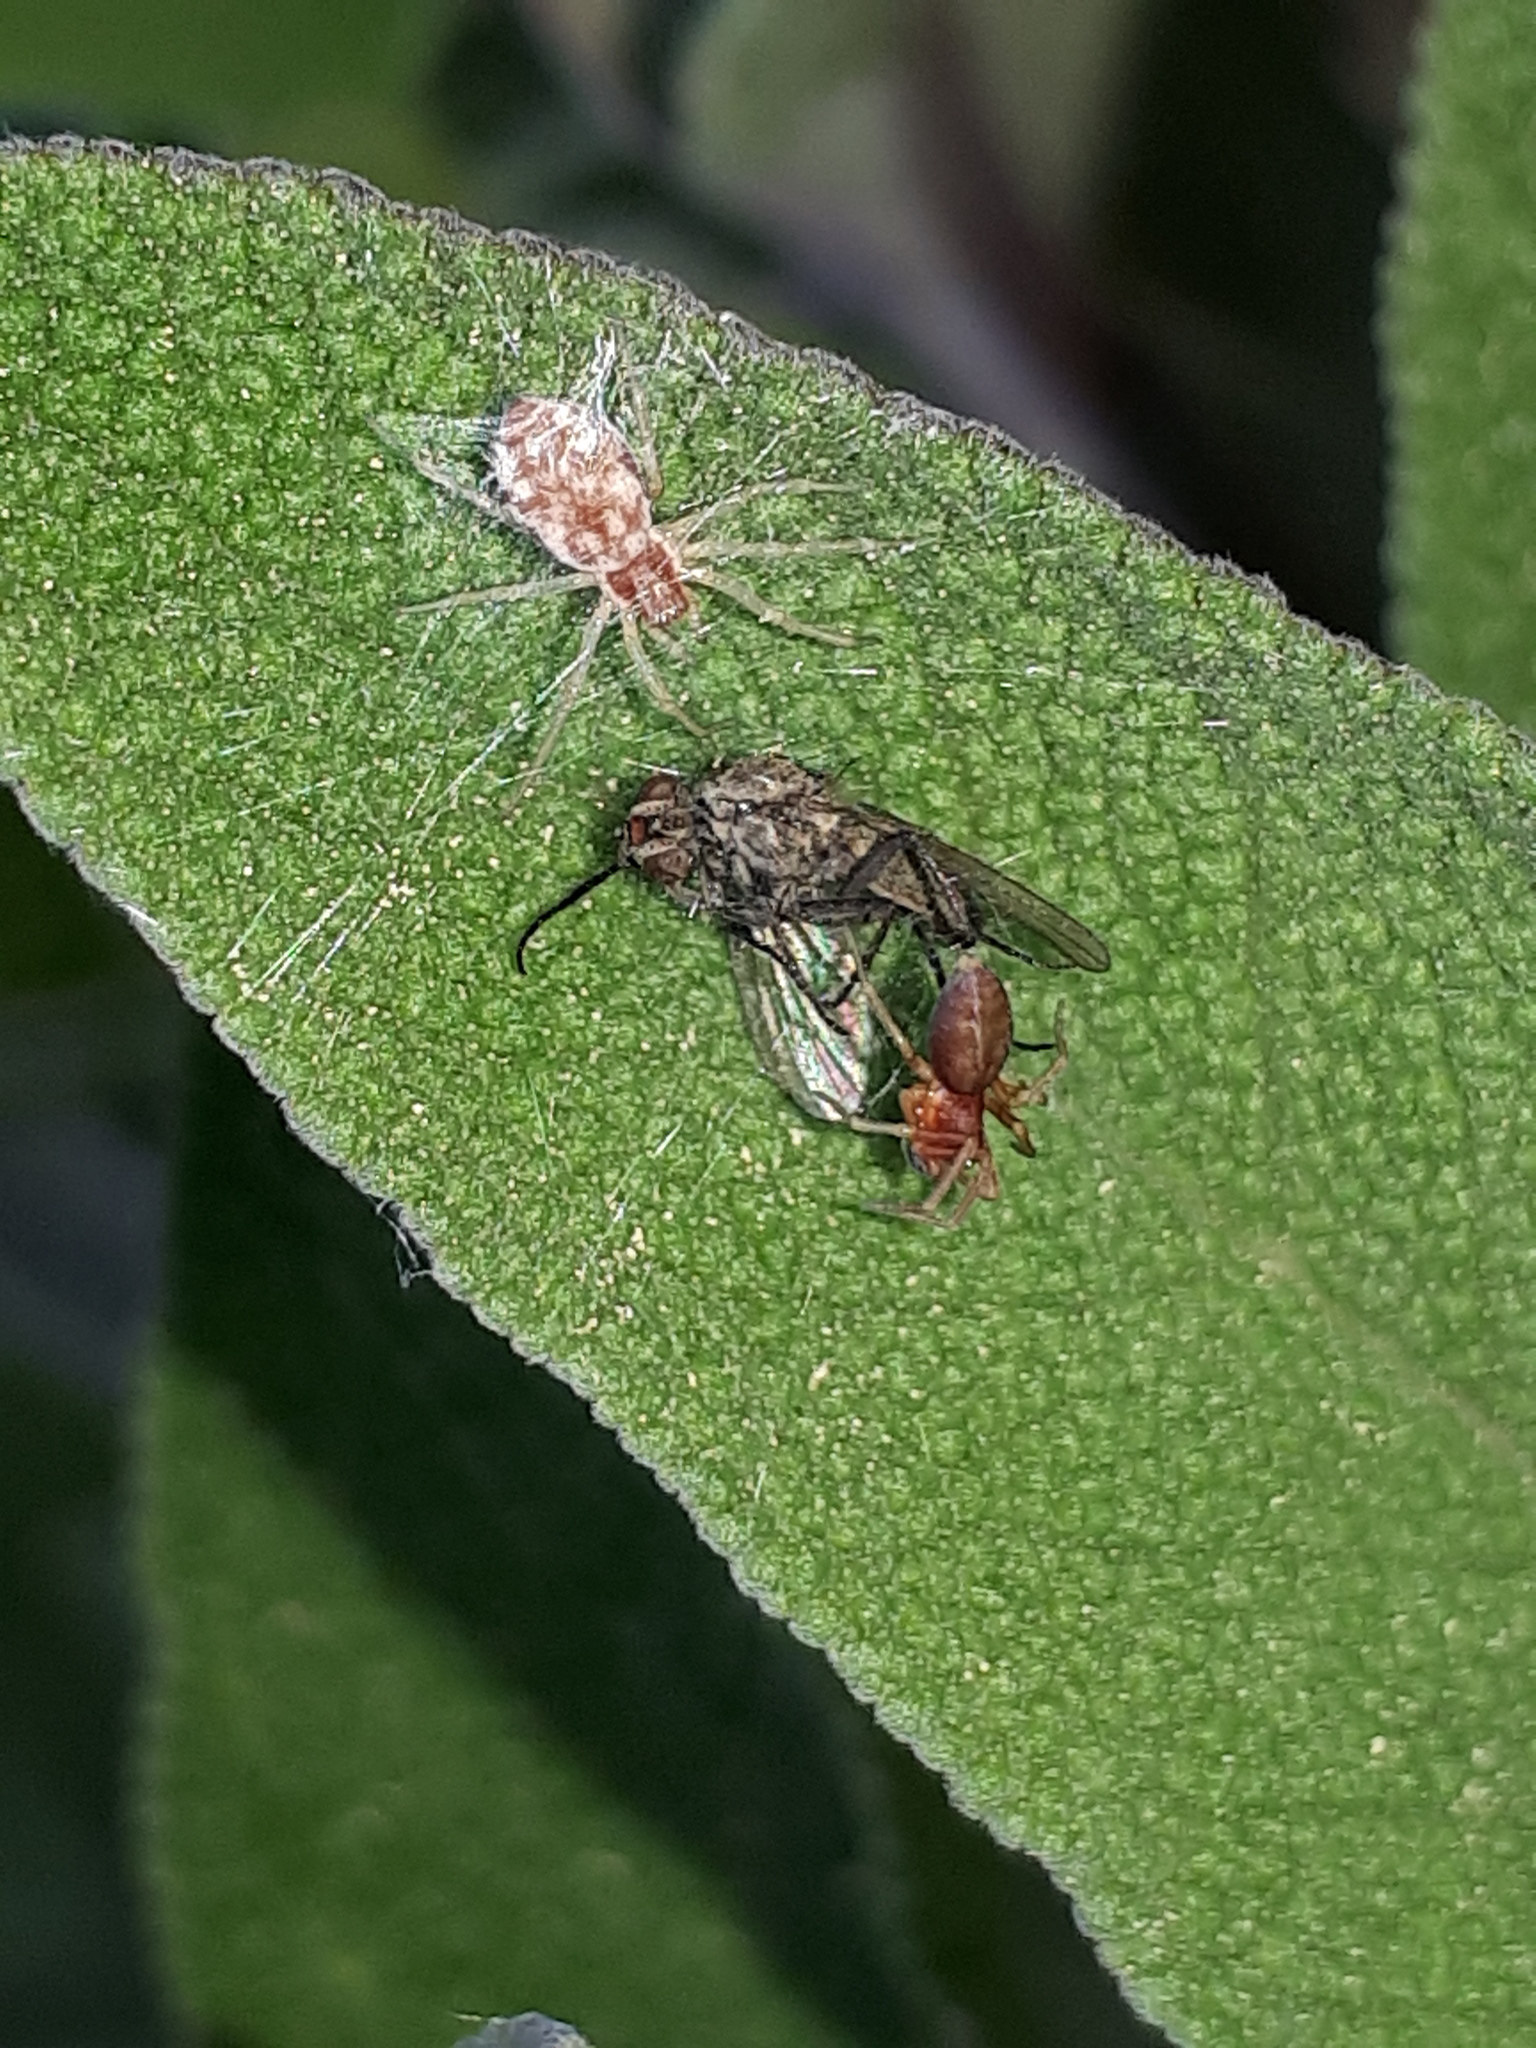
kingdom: Animalia
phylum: Arthropoda
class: Arachnida
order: Araneae
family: Dictynidae
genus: Nigma
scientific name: Nigma flavescens
